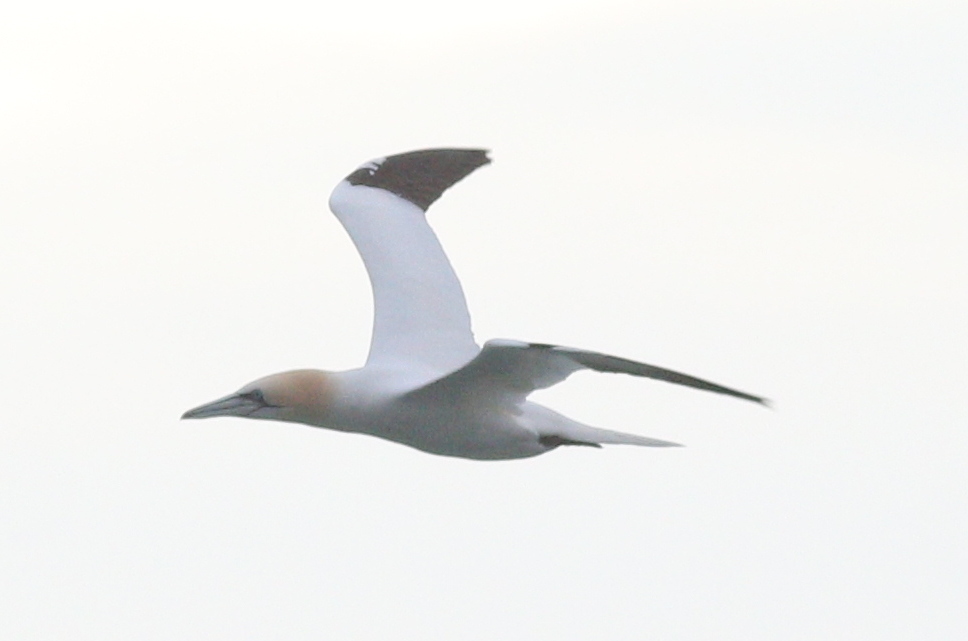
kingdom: Animalia
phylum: Chordata
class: Aves
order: Suliformes
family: Sulidae
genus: Morus
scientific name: Morus bassanus
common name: Northern gannet
